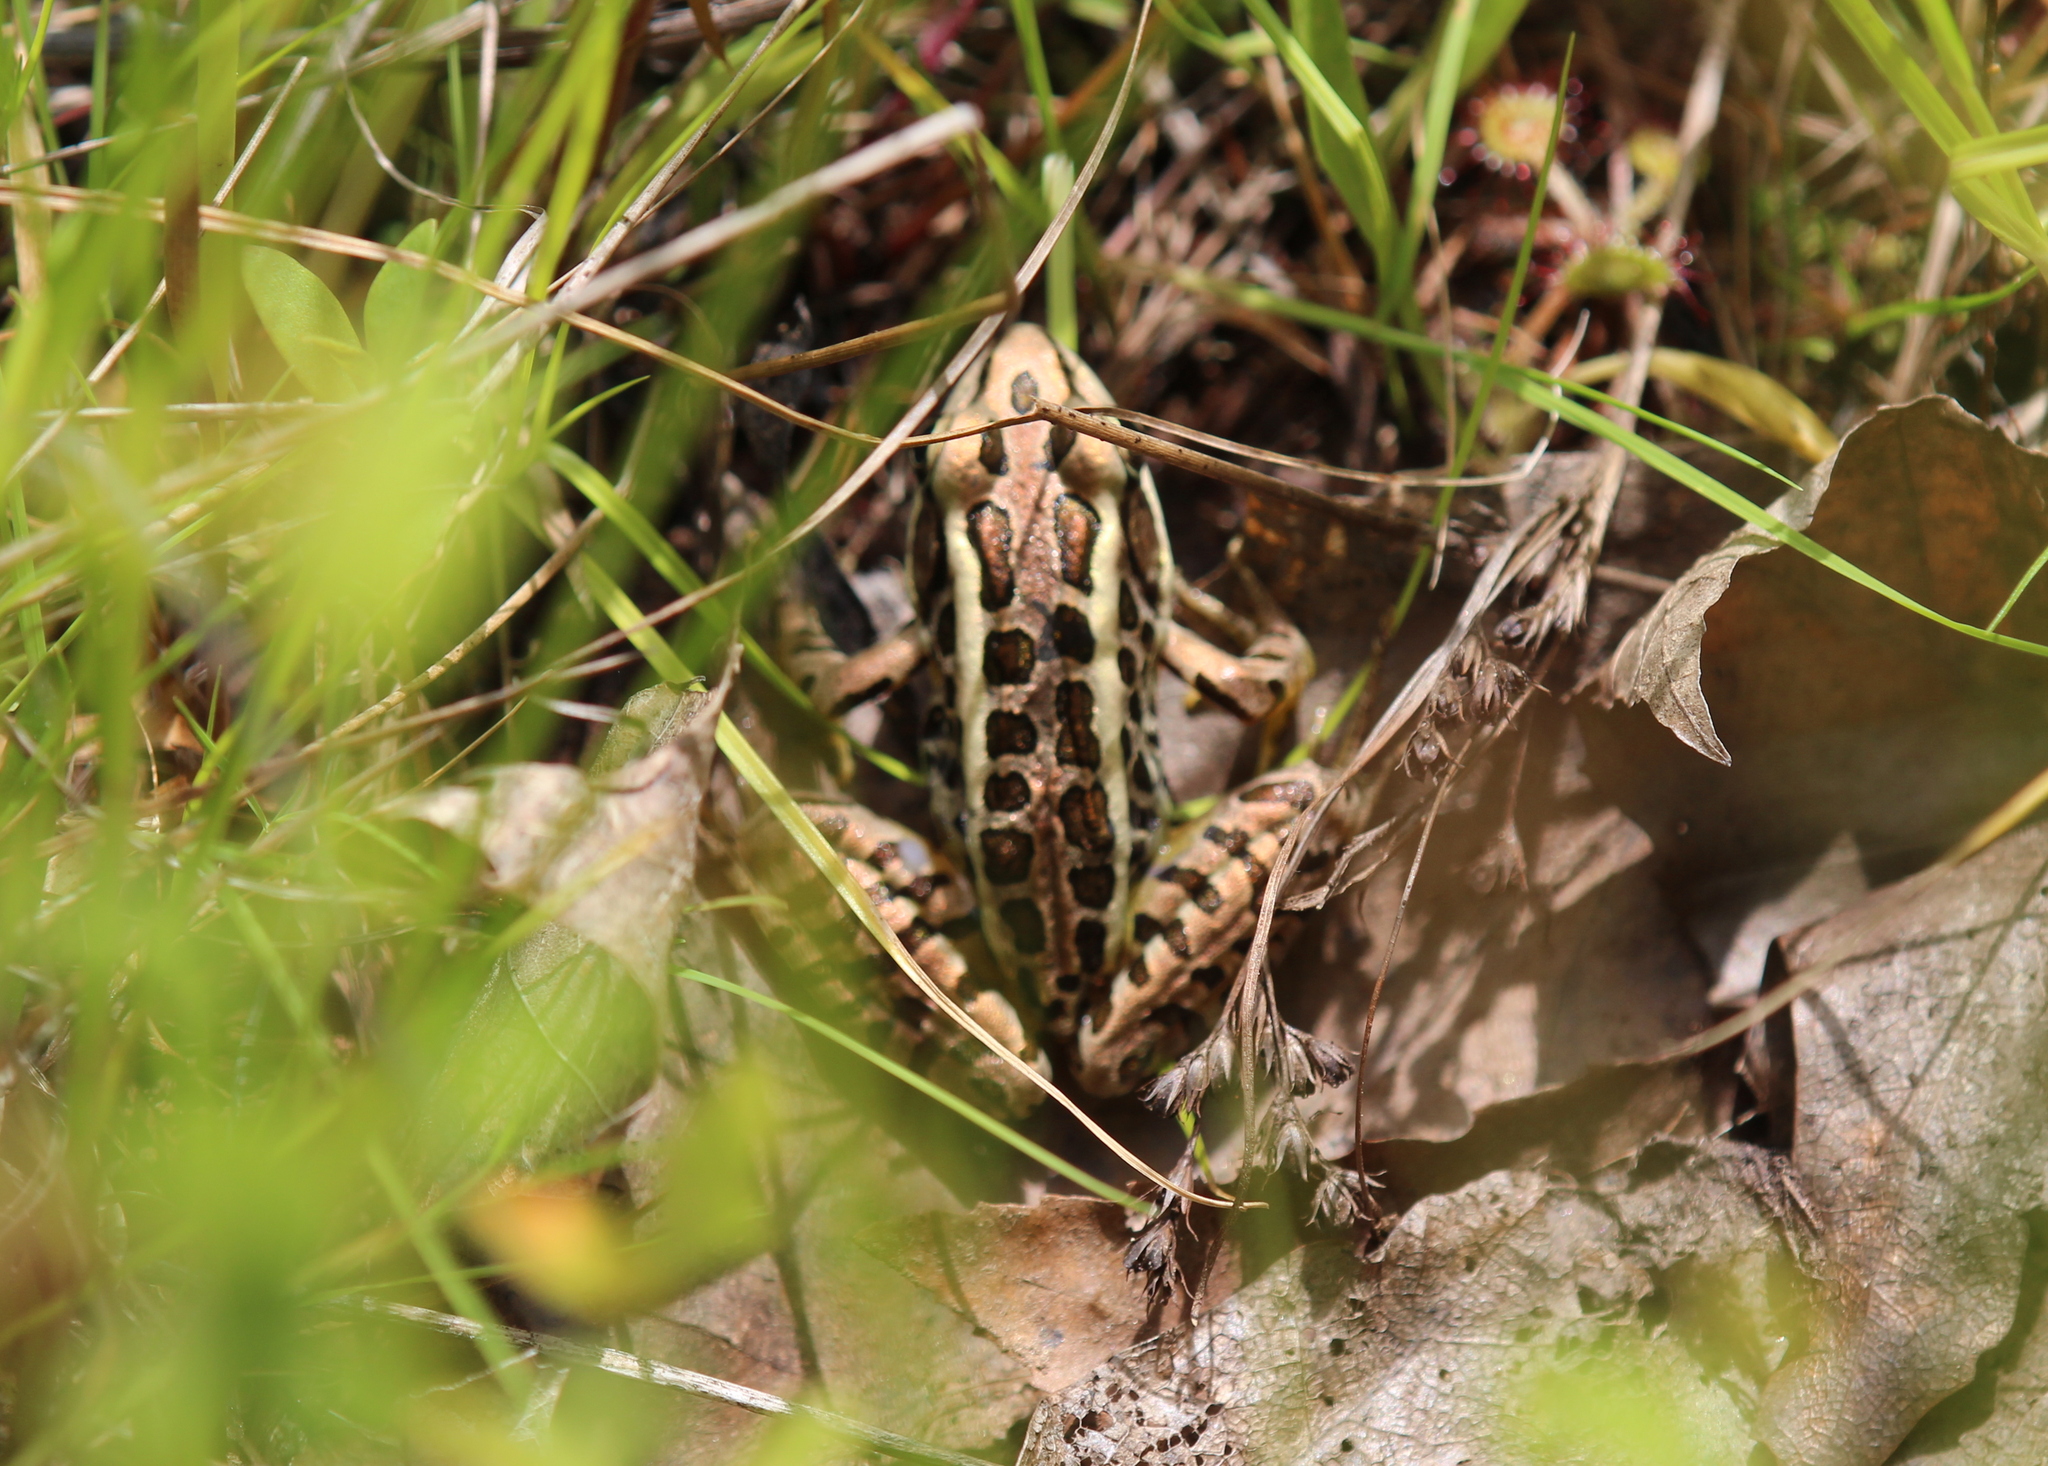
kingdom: Animalia
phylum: Chordata
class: Amphibia
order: Anura
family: Ranidae
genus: Lithobates
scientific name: Lithobates palustris
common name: Pickerel frog
